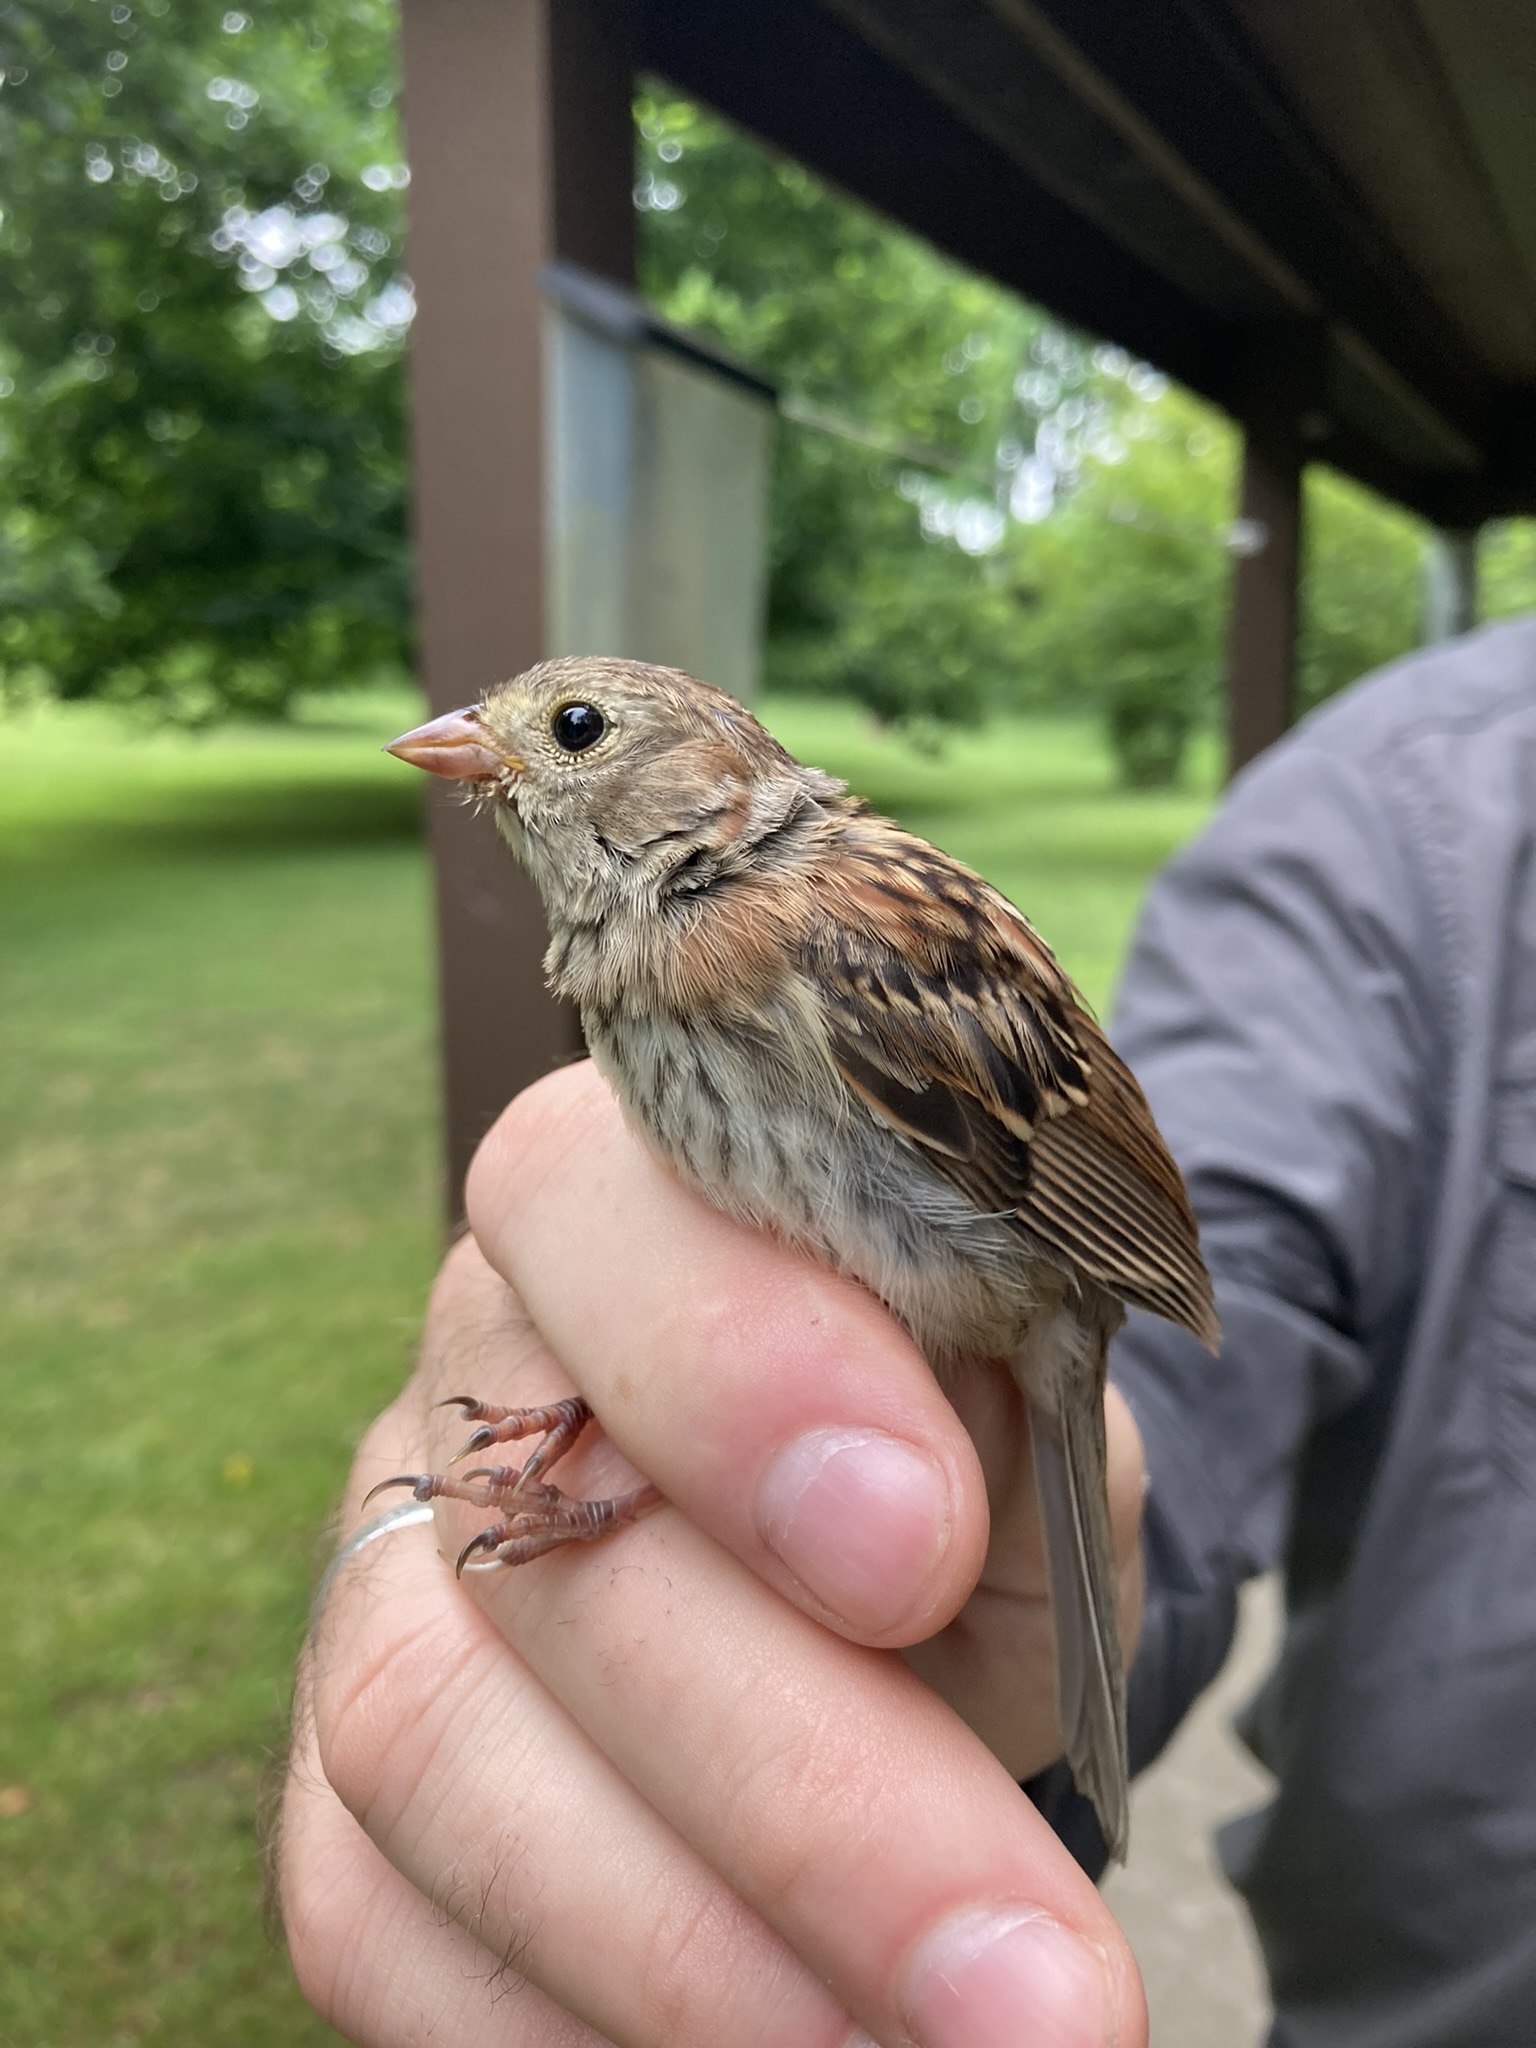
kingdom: Animalia
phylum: Chordata
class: Aves
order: Passeriformes
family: Passerellidae
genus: Spizella
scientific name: Spizella pusilla
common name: Field sparrow
